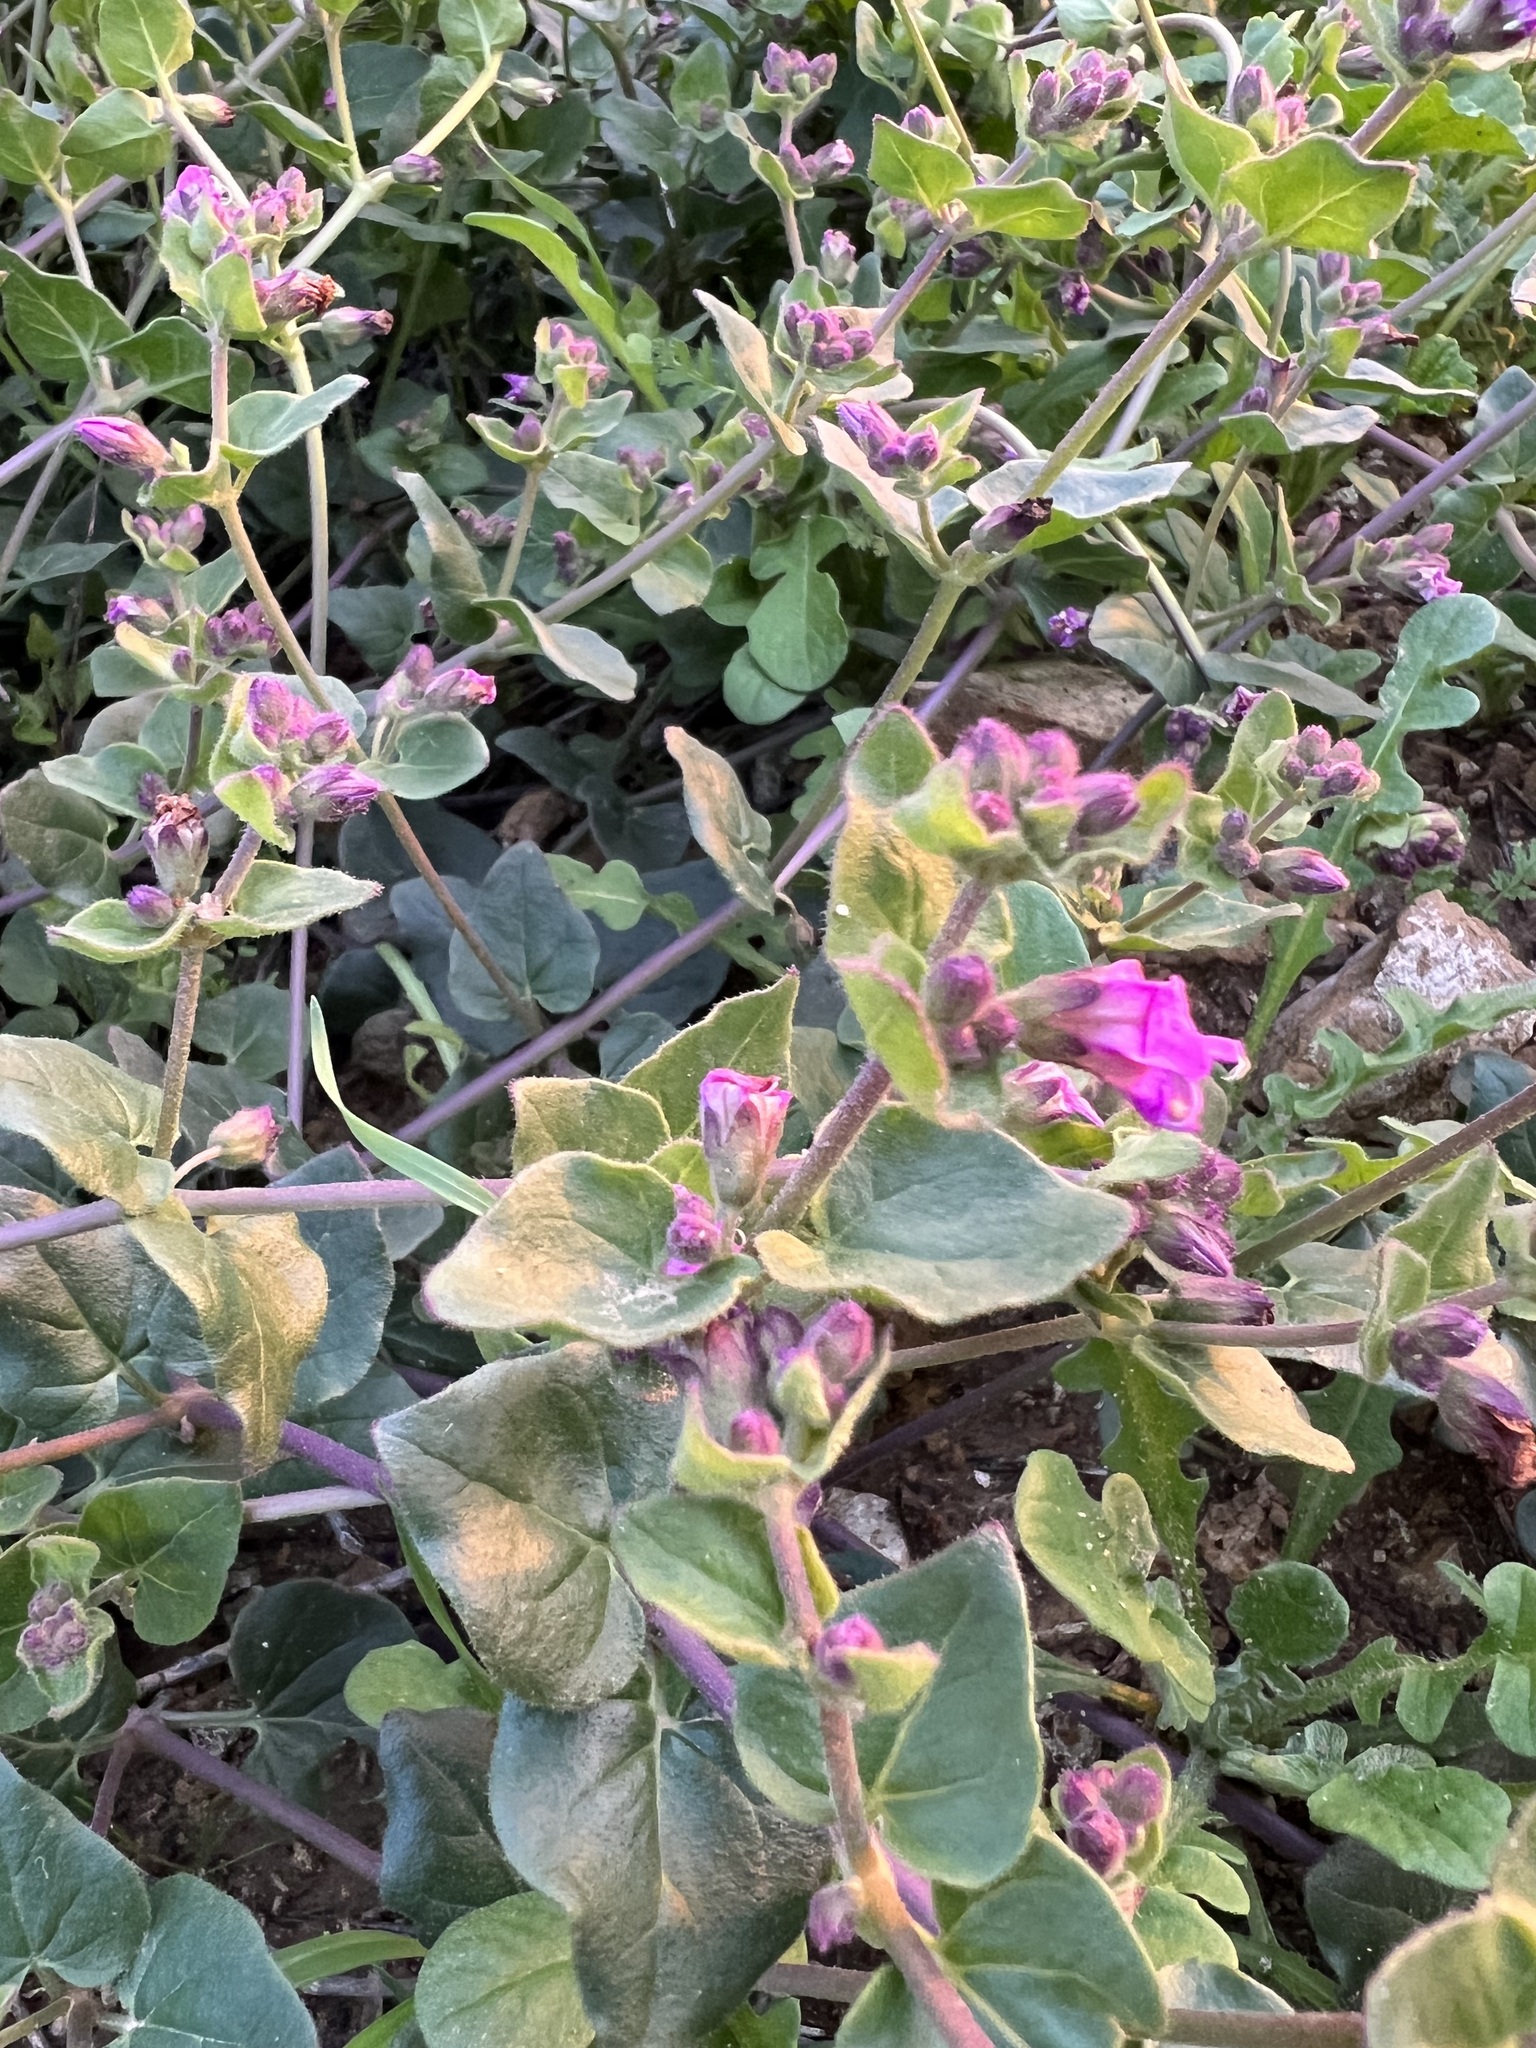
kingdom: Plantae
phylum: Tracheophyta
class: Magnoliopsida
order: Caryophyllales
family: Nyctaginaceae
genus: Mirabilis
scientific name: Mirabilis laevis
